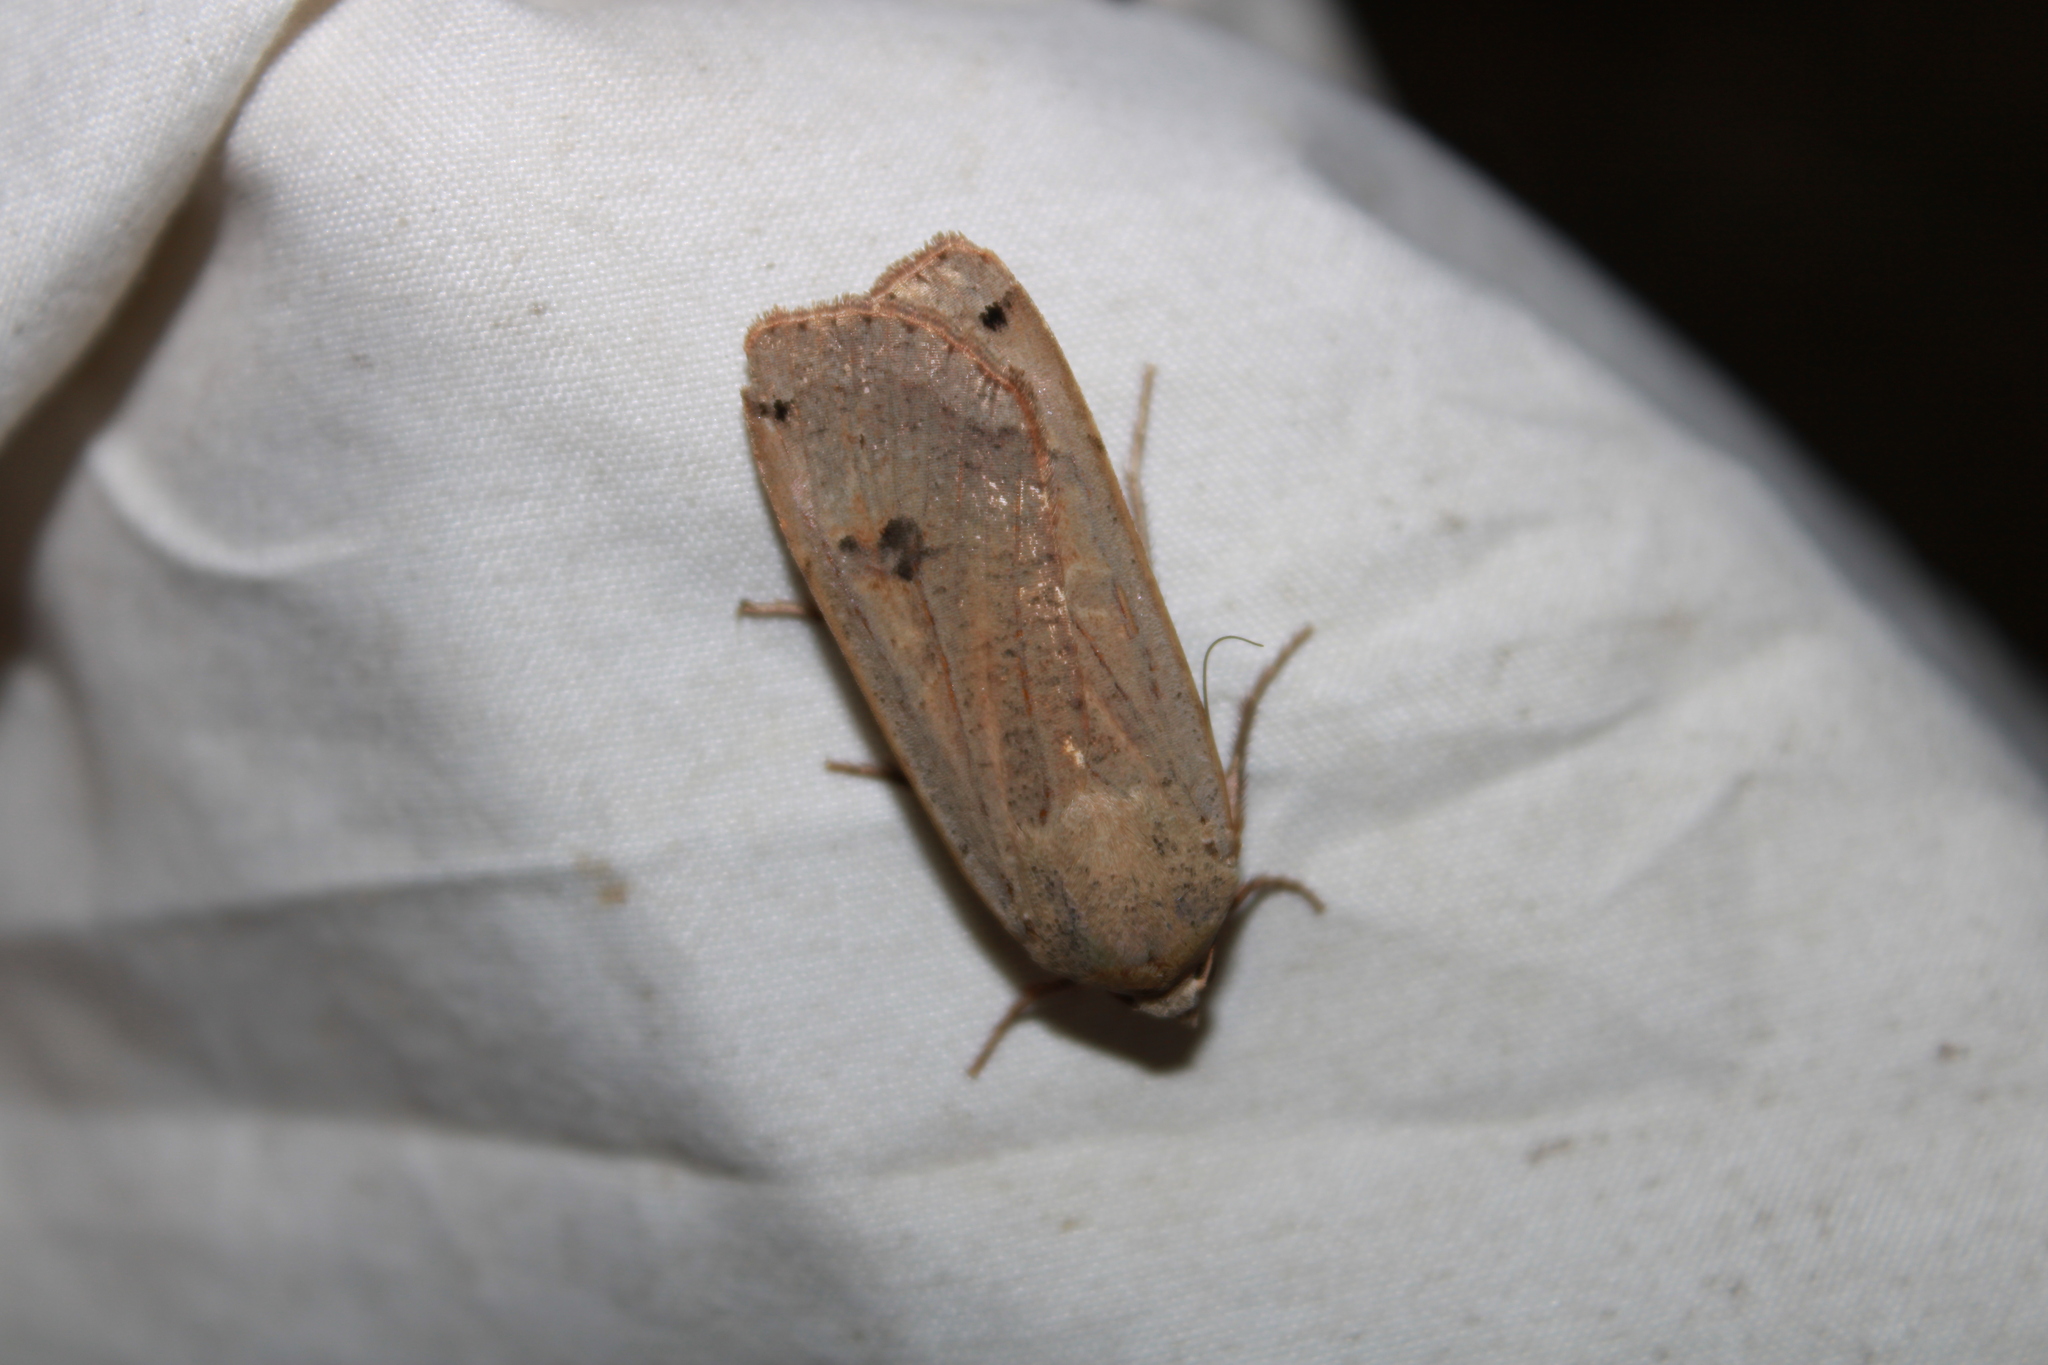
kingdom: Animalia
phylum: Arthropoda
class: Insecta
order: Lepidoptera
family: Noctuidae
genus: Noctua
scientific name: Noctua pronuba
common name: Large yellow underwing
